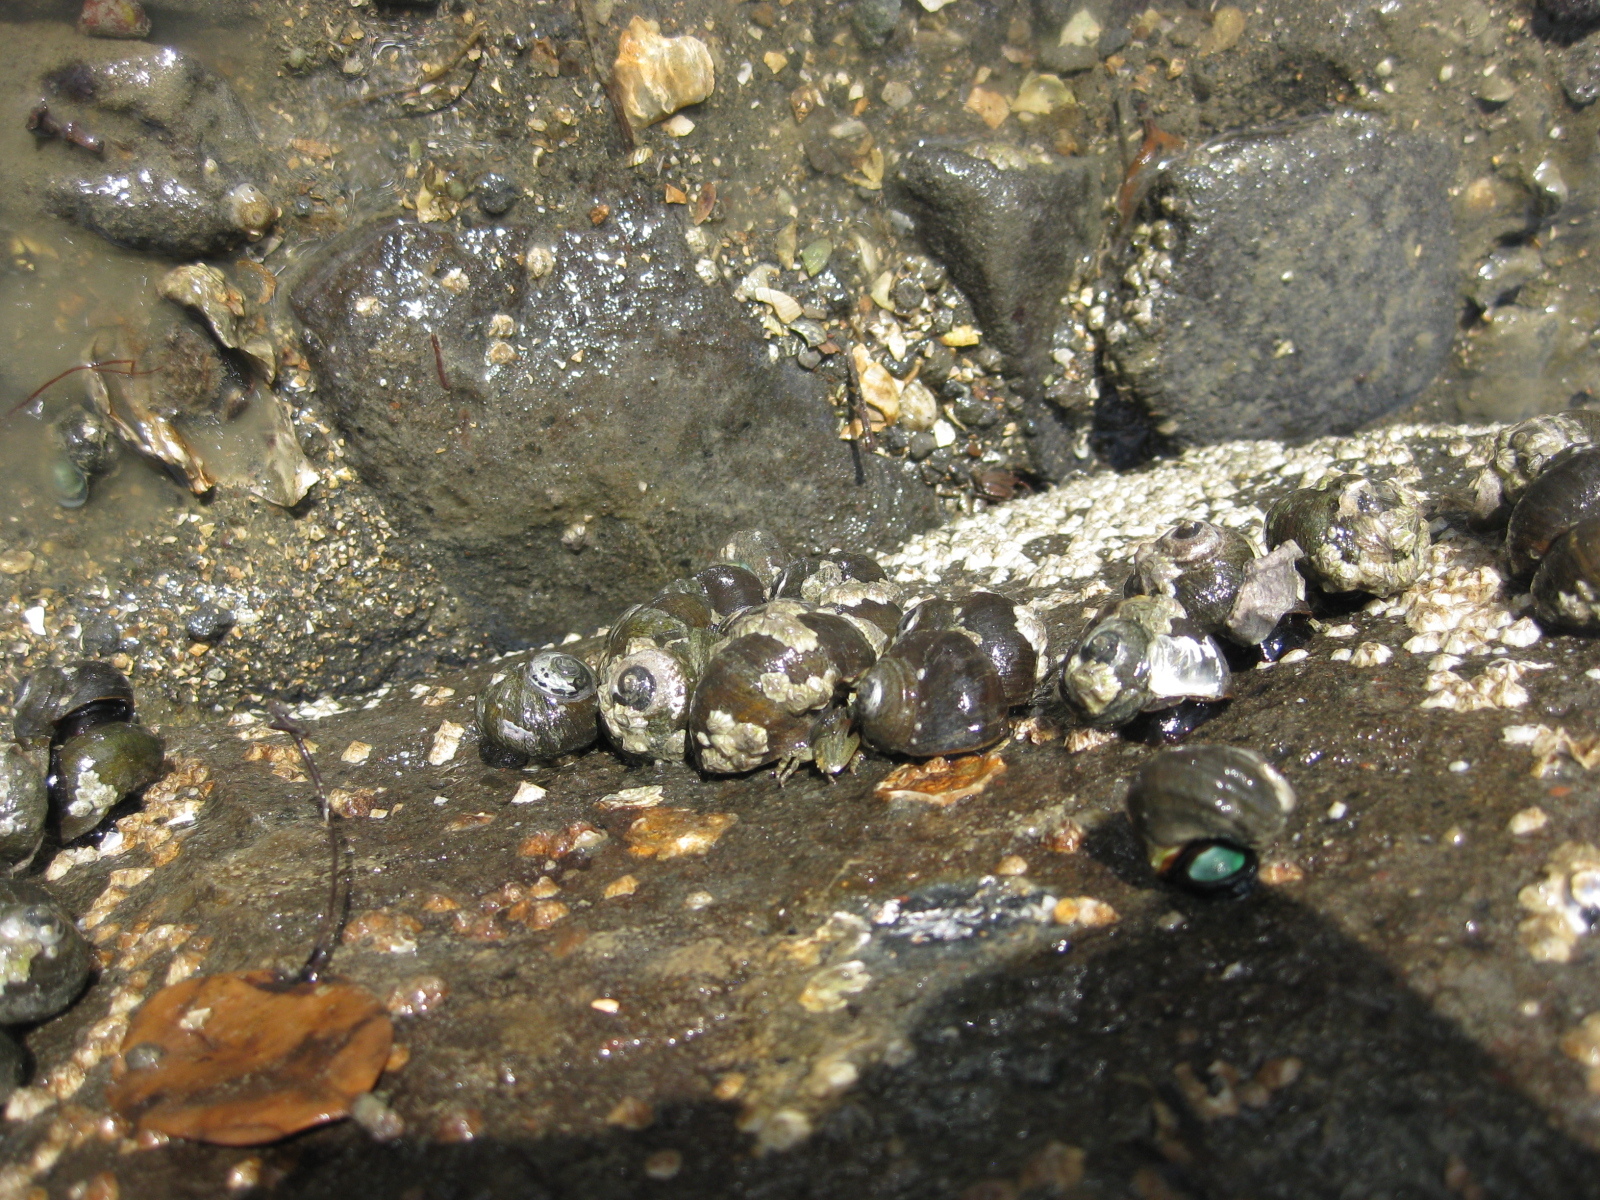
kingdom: Animalia
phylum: Mollusca
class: Gastropoda
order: Trochida
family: Turbinidae
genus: Lunella
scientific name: Lunella smaragda
